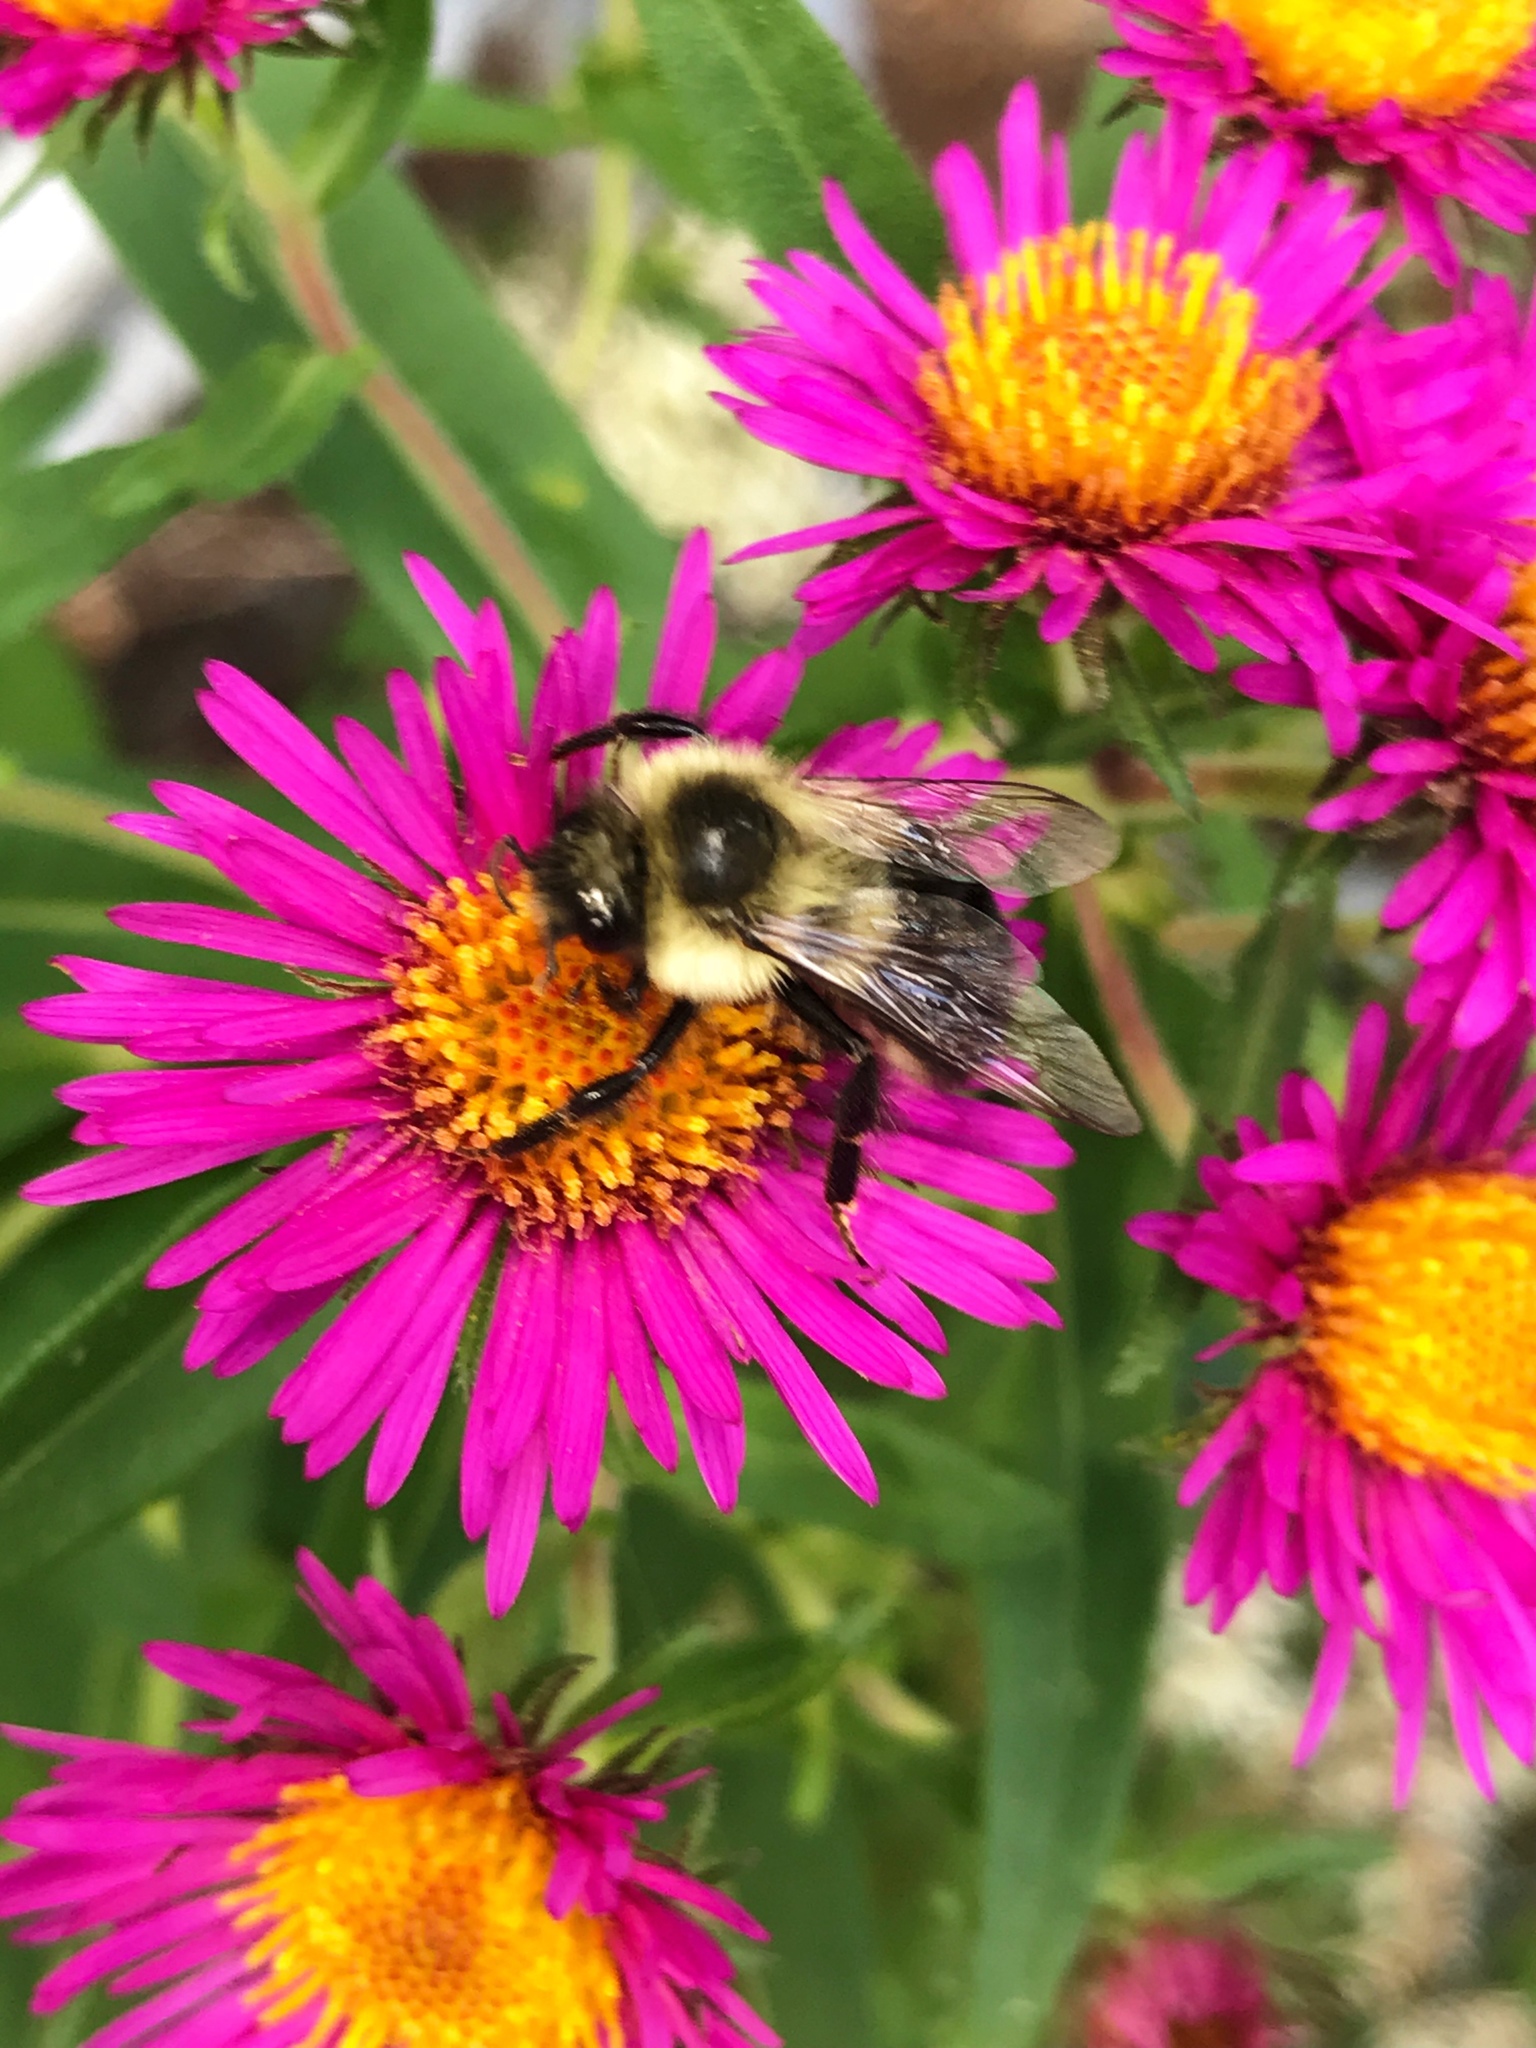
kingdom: Animalia
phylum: Arthropoda
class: Insecta
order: Hymenoptera
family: Apidae
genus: Bombus
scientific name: Bombus impatiens
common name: Common eastern bumble bee
